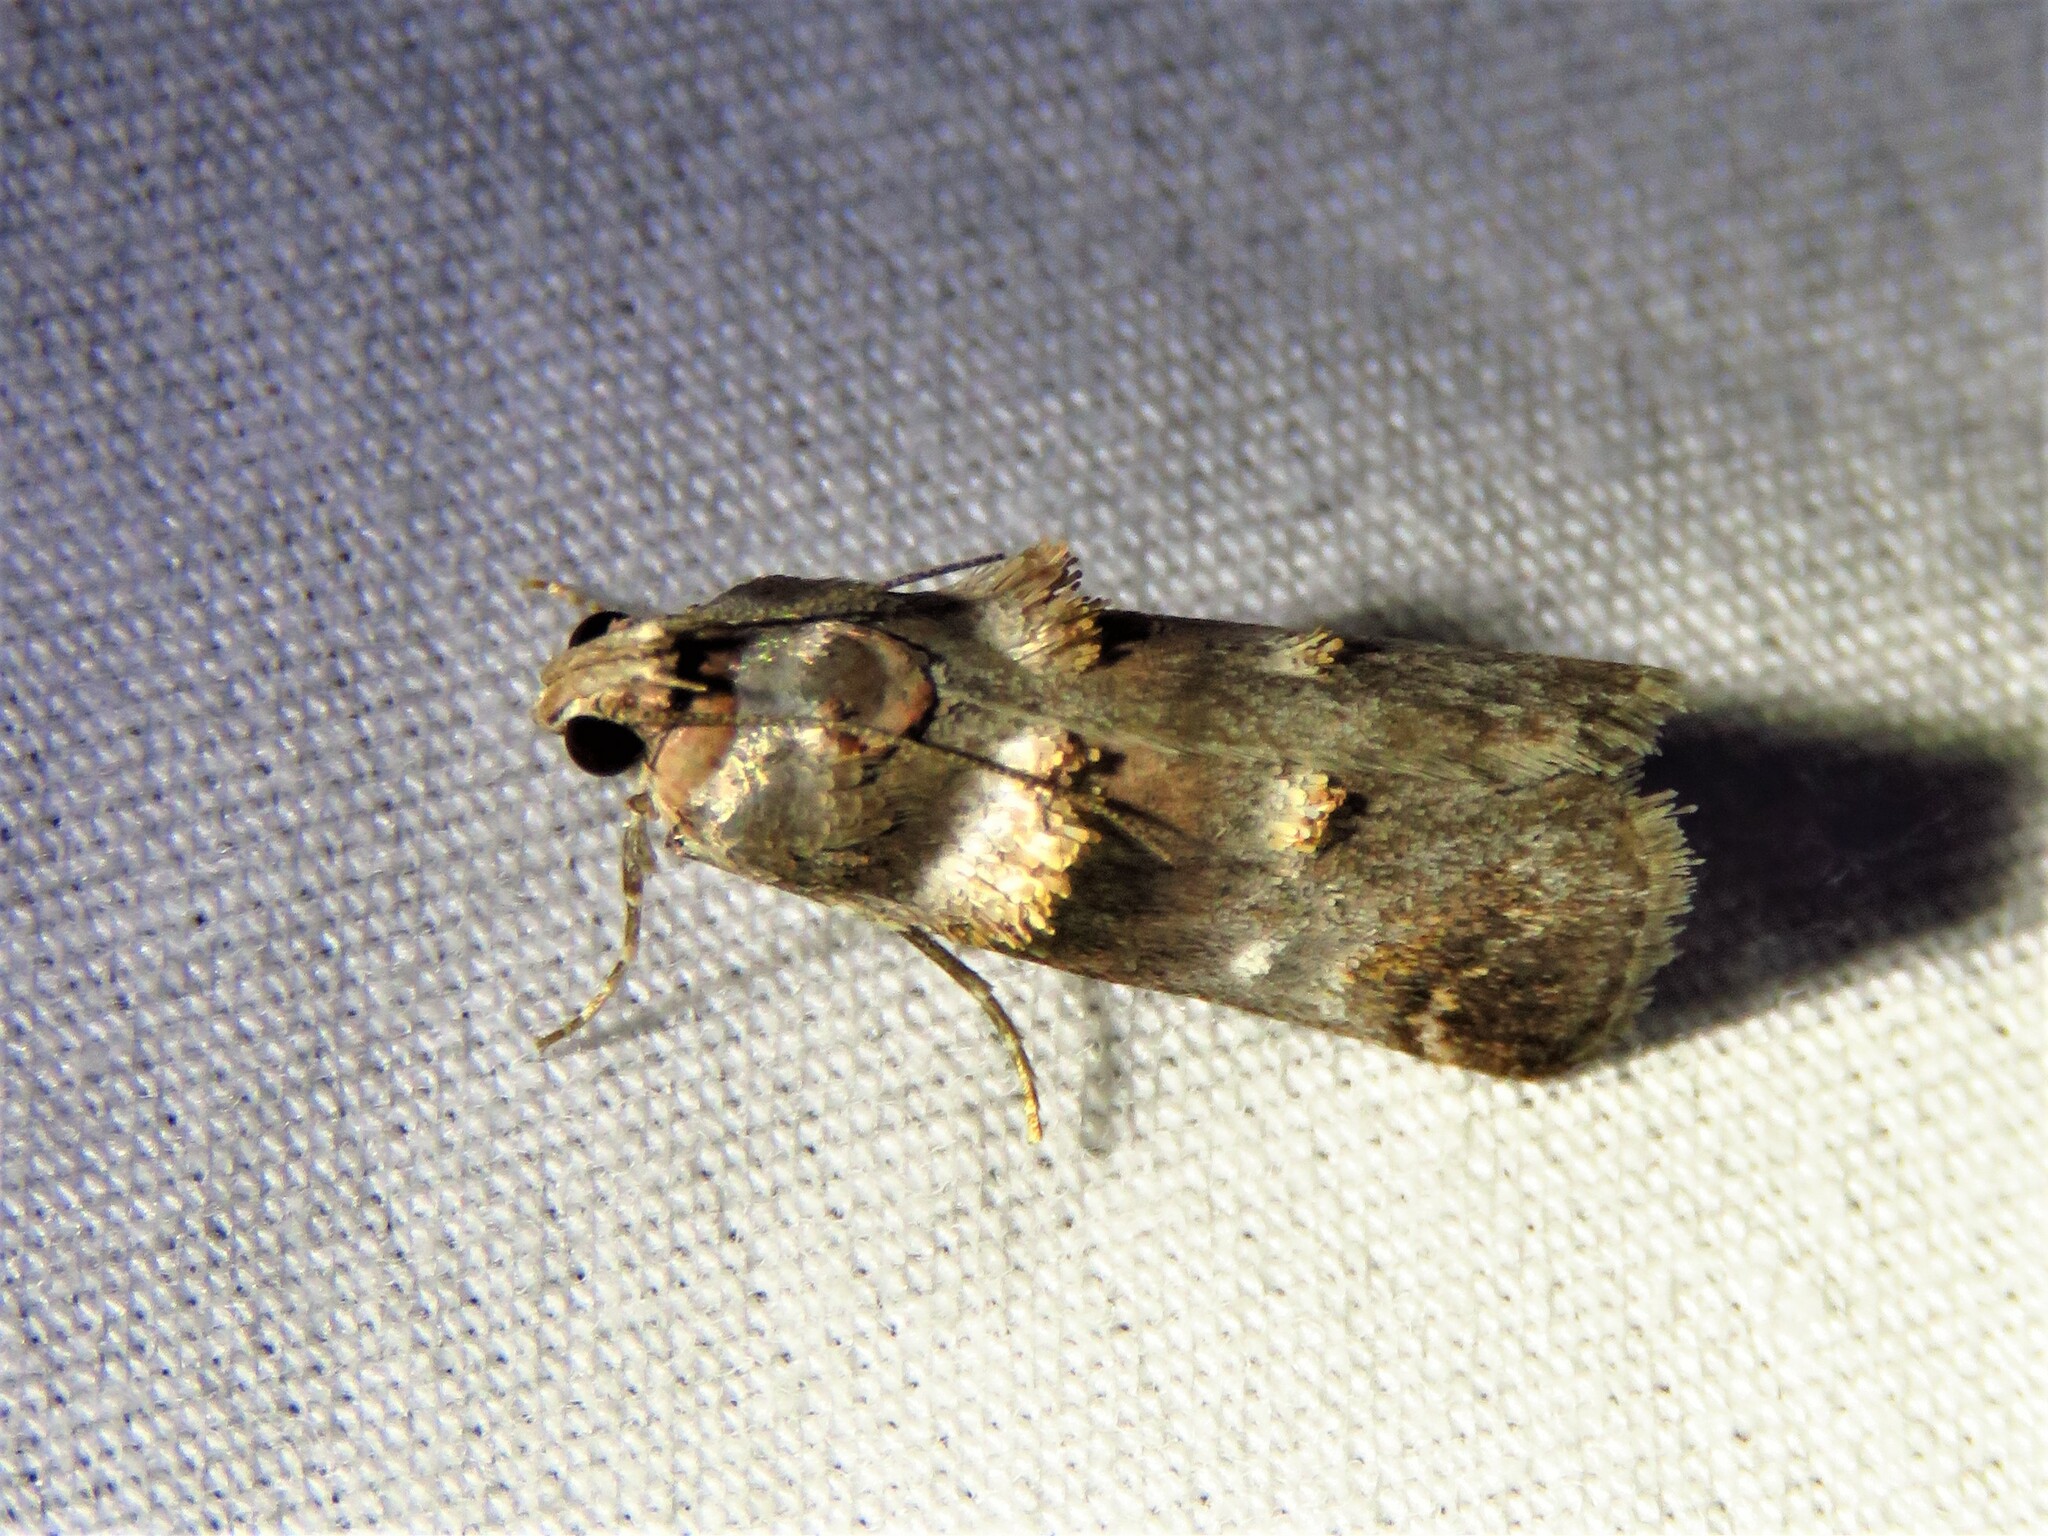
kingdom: Animalia
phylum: Arthropoda
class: Insecta
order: Lepidoptera
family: Pyralidae
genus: Oneida
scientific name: Oneida lunulalis
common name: Orange-tufted oneida moth
